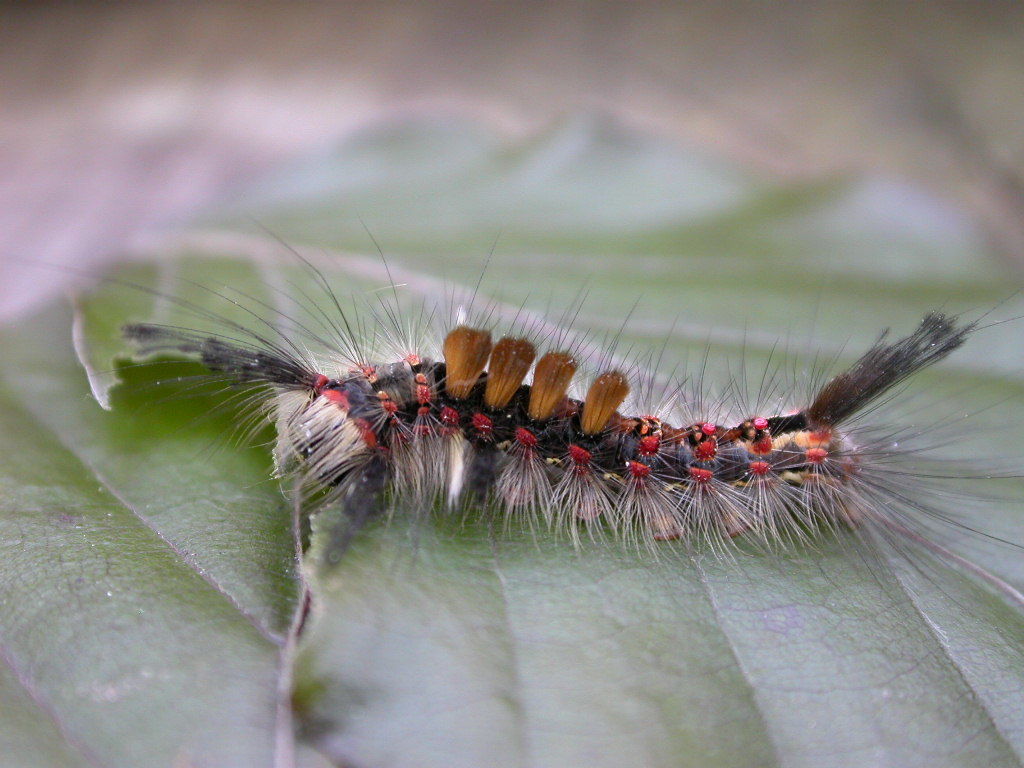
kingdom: Animalia
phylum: Arthropoda
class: Insecta
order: Lepidoptera
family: Erebidae
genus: Orgyia
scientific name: Orgyia antiqua
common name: Vapourer
